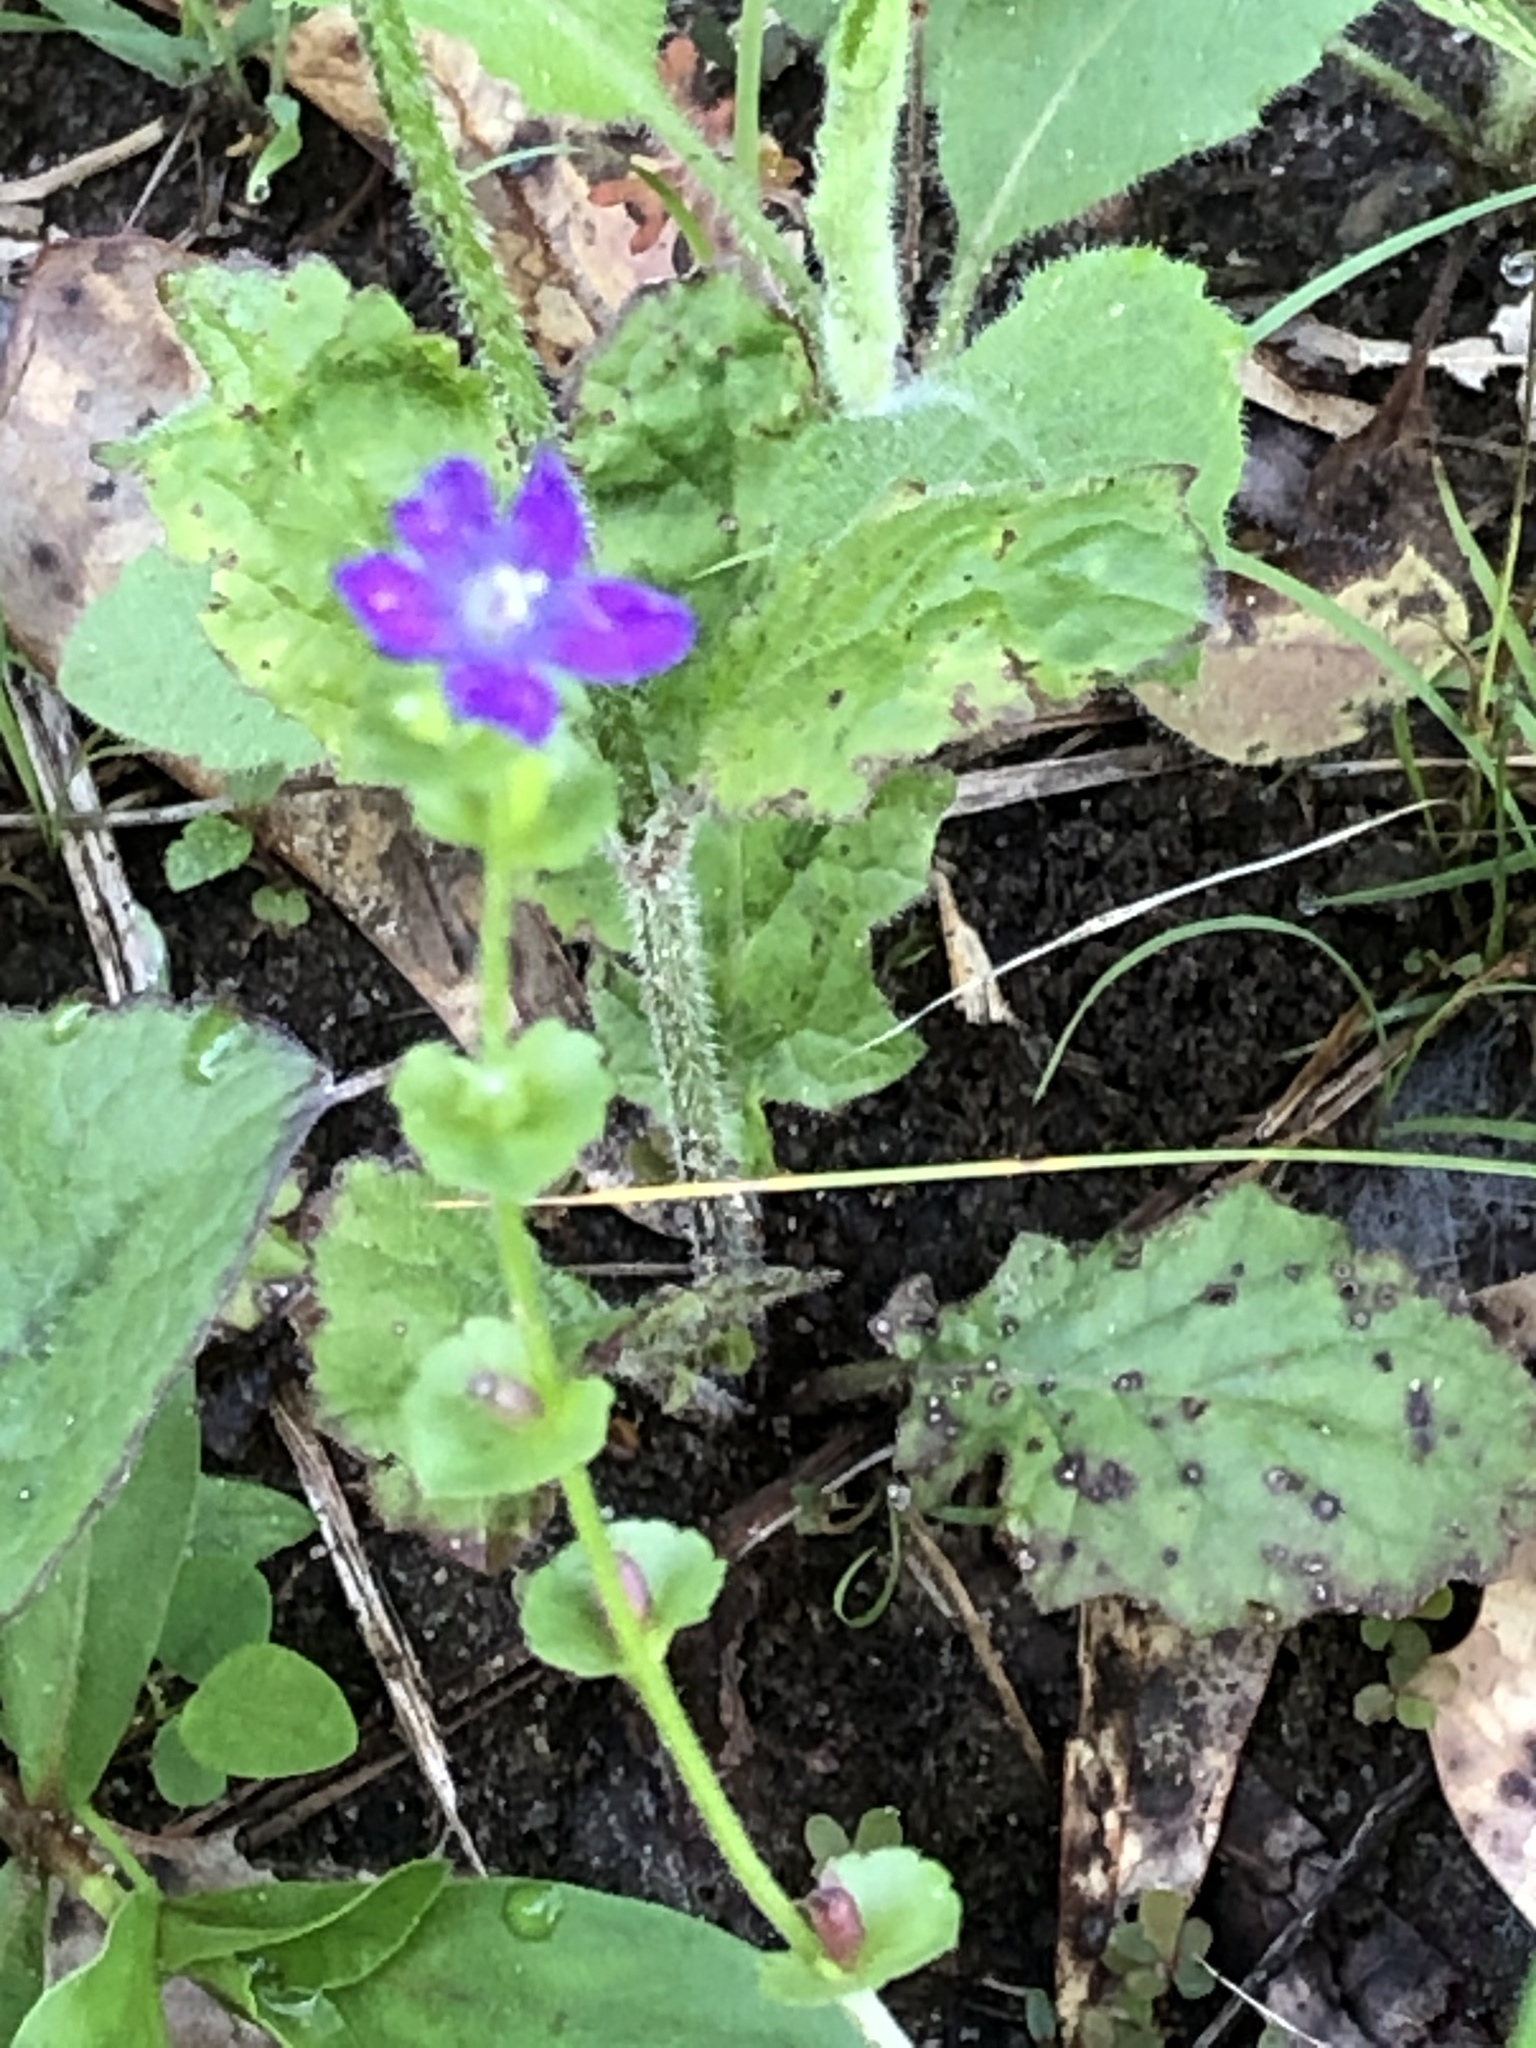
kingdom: Plantae
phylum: Tracheophyta
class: Magnoliopsida
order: Asterales
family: Campanulaceae
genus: Triodanis
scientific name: Triodanis perfoliata
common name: Clasping venus' looking-glass
